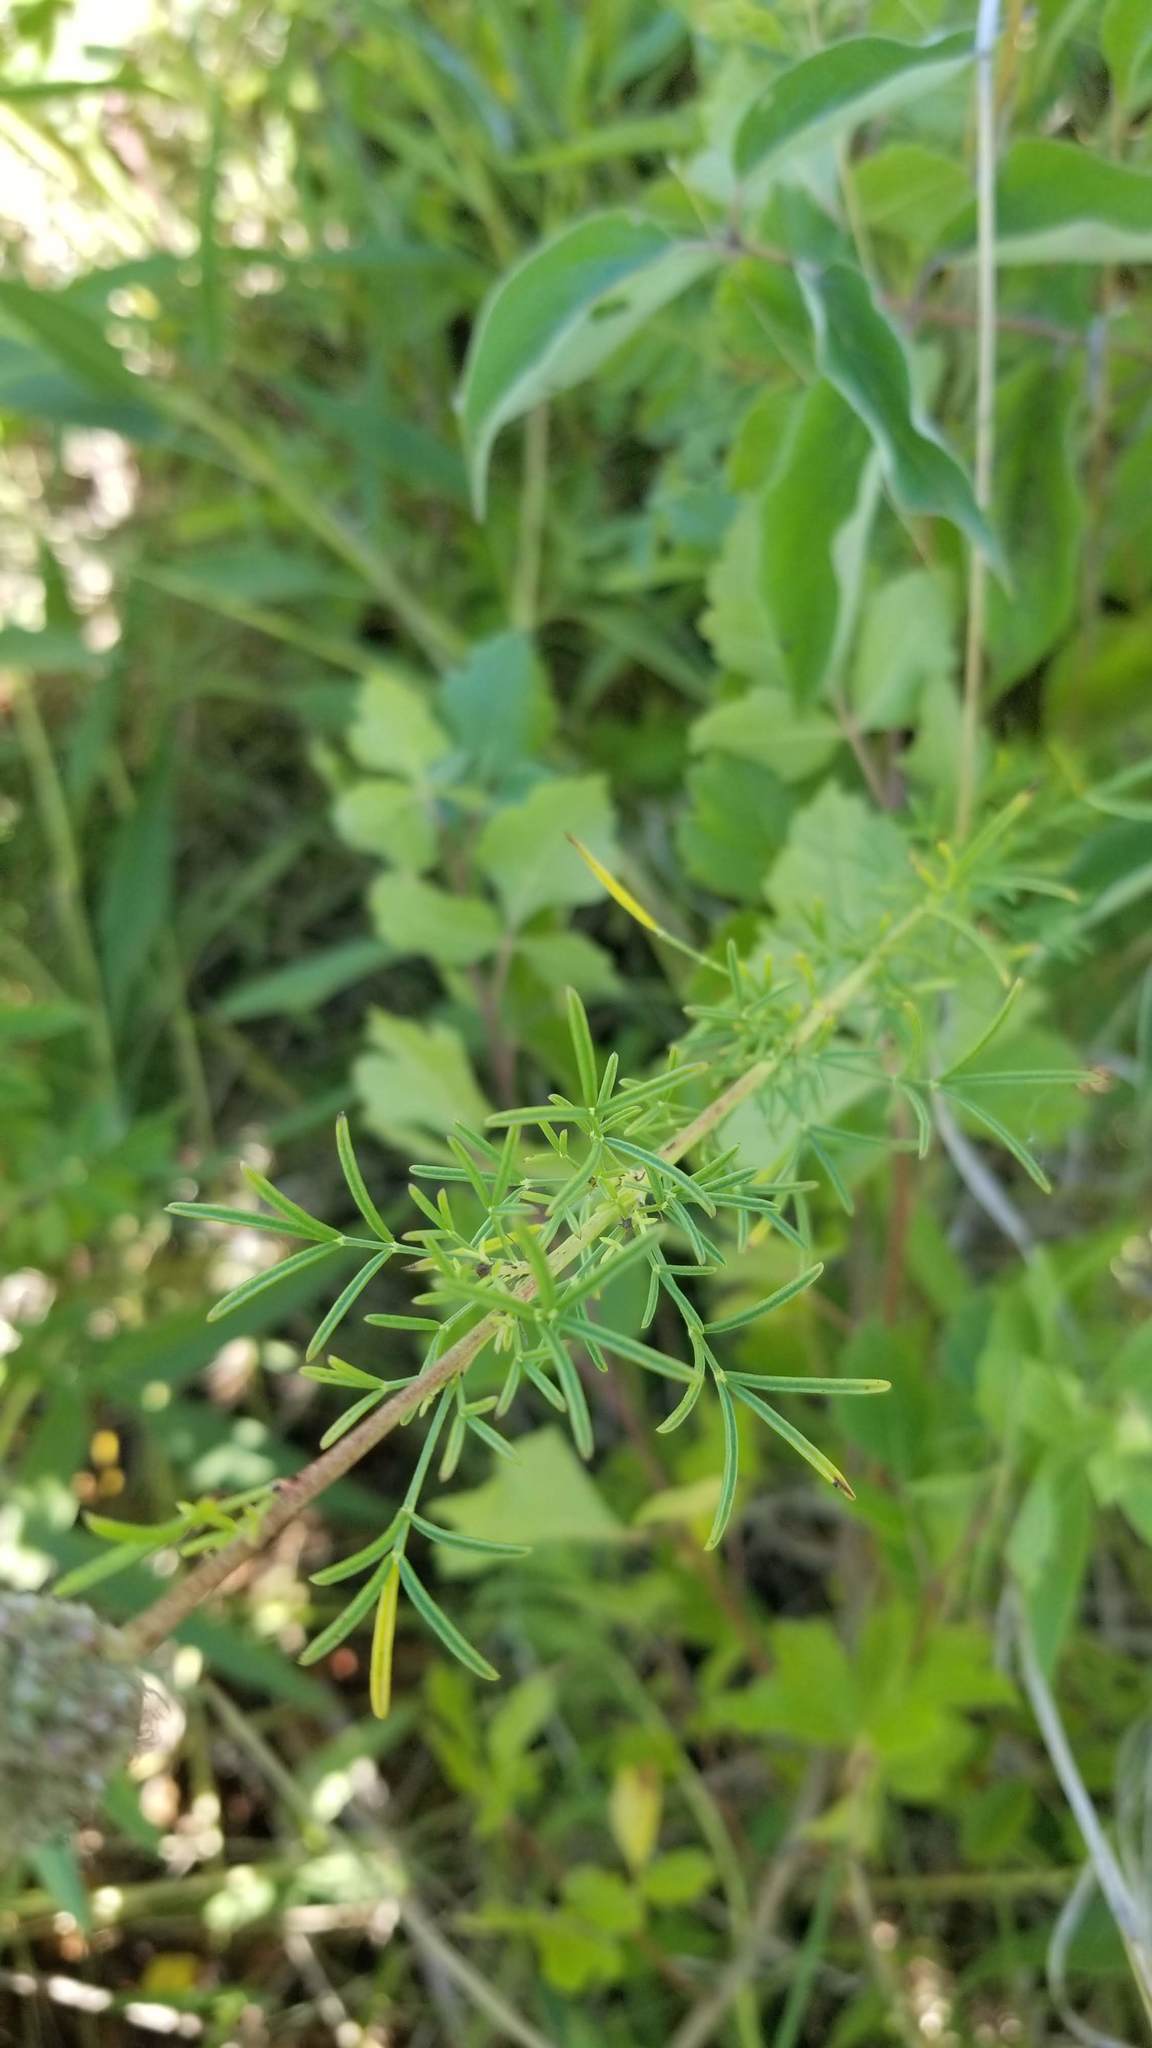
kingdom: Plantae
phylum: Tracheophyta
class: Magnoliopsida
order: Fabales
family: Fabaceae
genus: Dalea
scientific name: Dalea candida
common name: White prairie-clover
